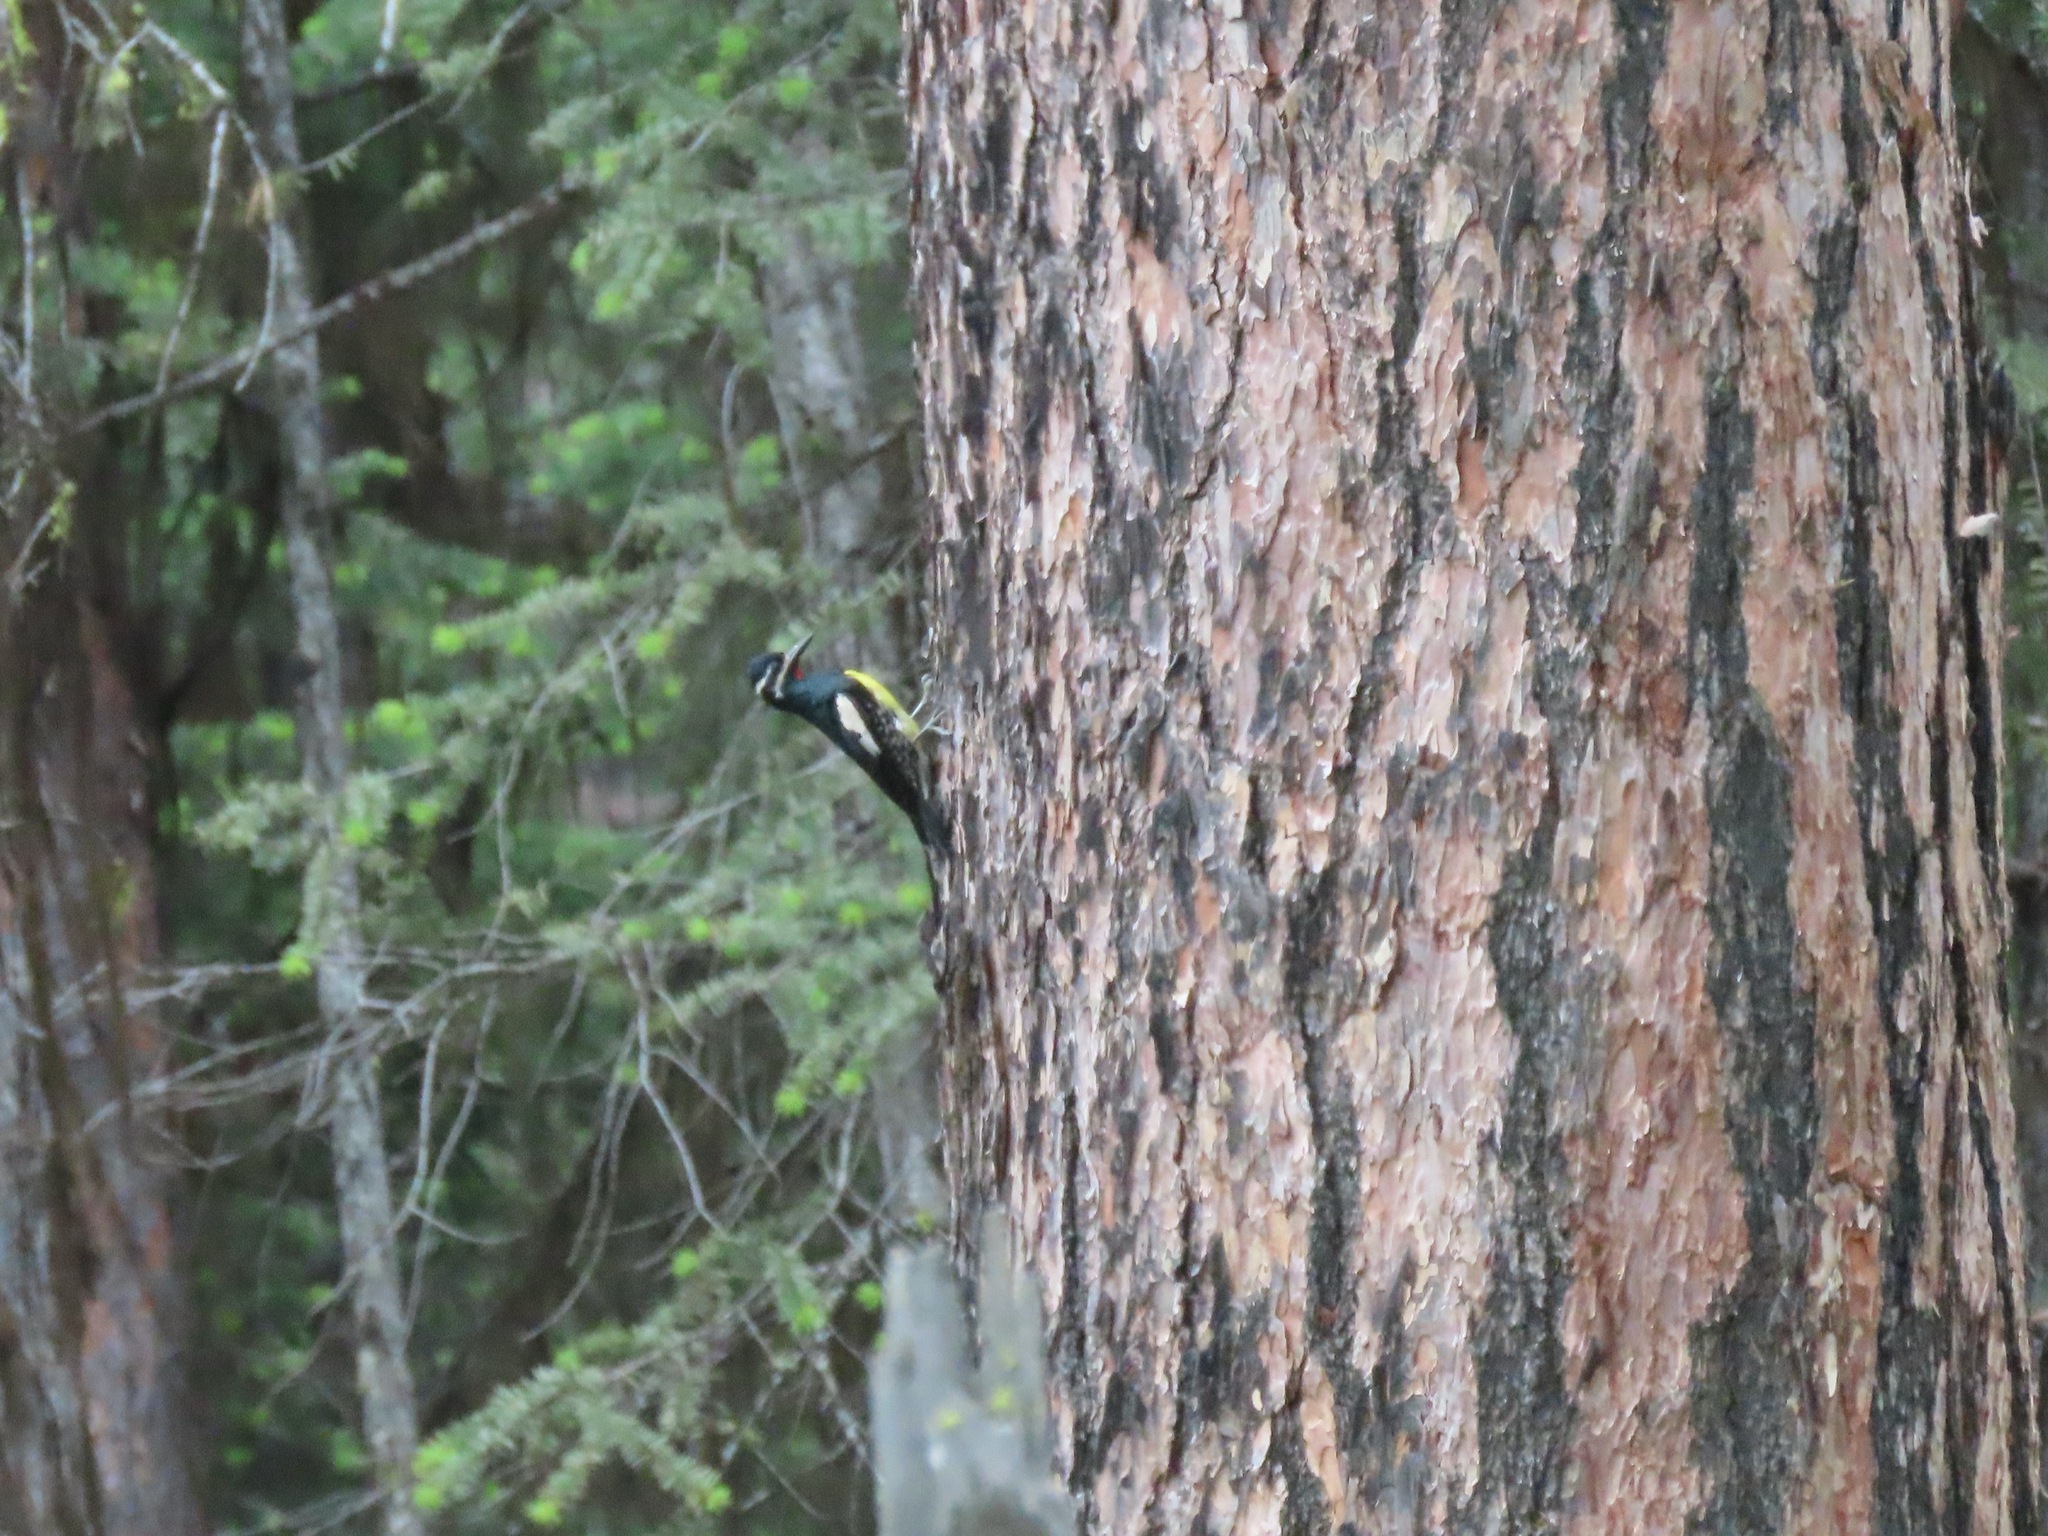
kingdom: Animalia
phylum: Chordata
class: Aves
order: Piciformes
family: Picidae
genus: Sphyrapicus
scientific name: Sphyrapicus thyroideus
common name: Williamson's sapsucker
